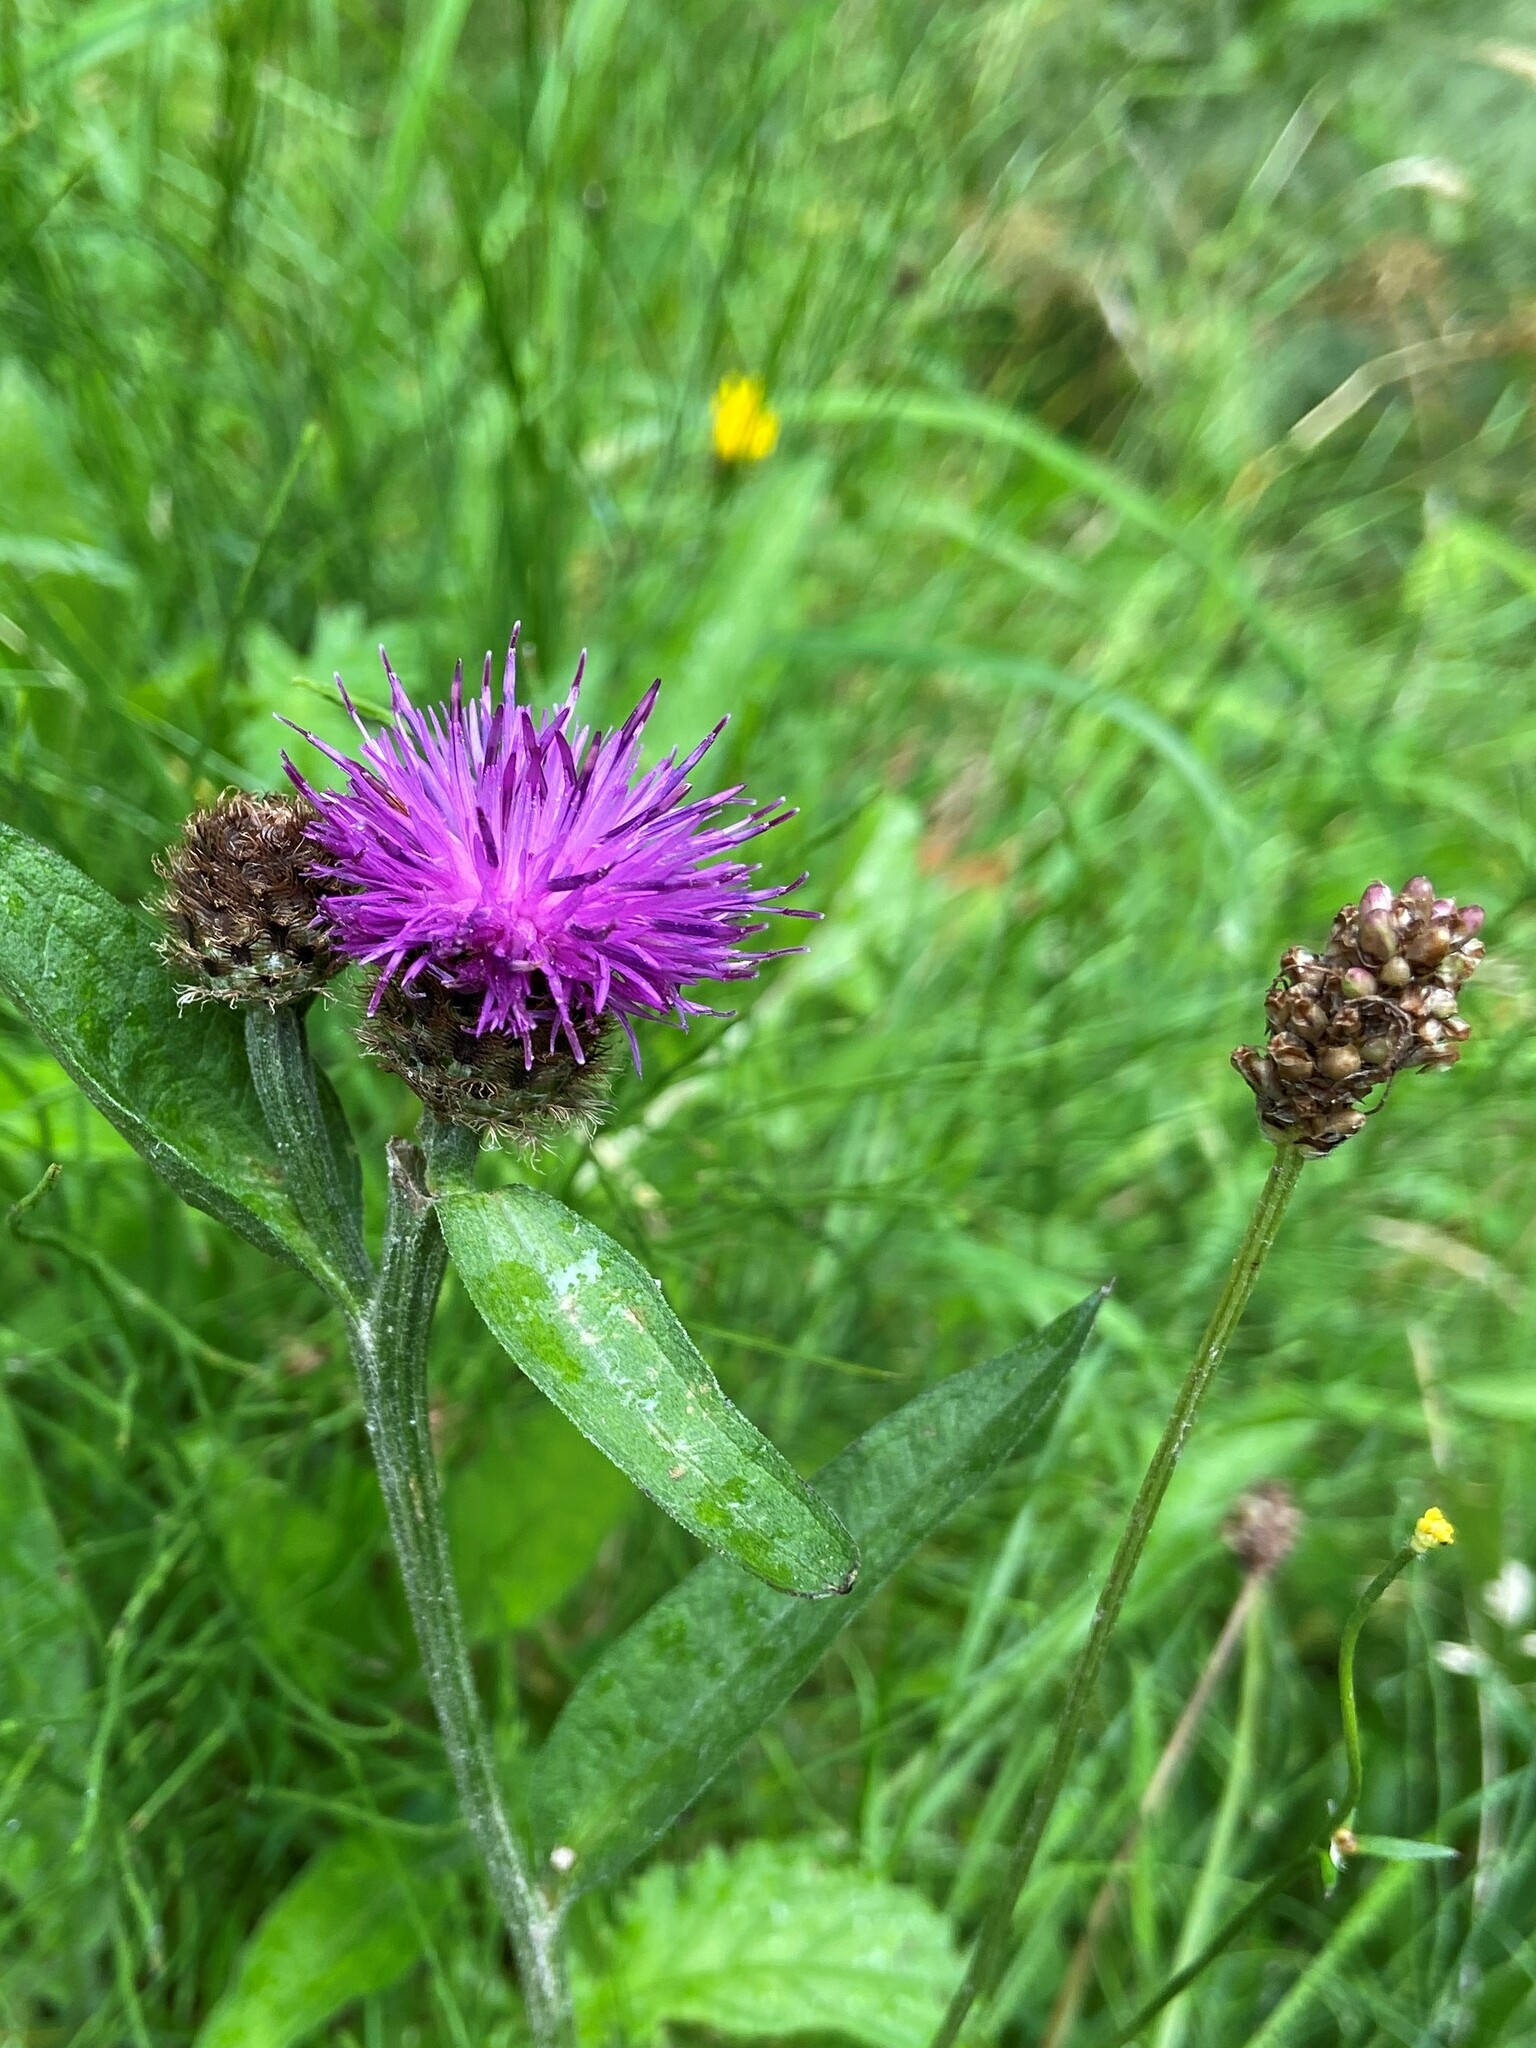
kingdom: Plantae
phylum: Tracheophyta
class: Magnoliopsida
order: Asterales
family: Asteraceae
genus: Centaurea
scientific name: Centaurea nigra
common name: Lesser knapweed
